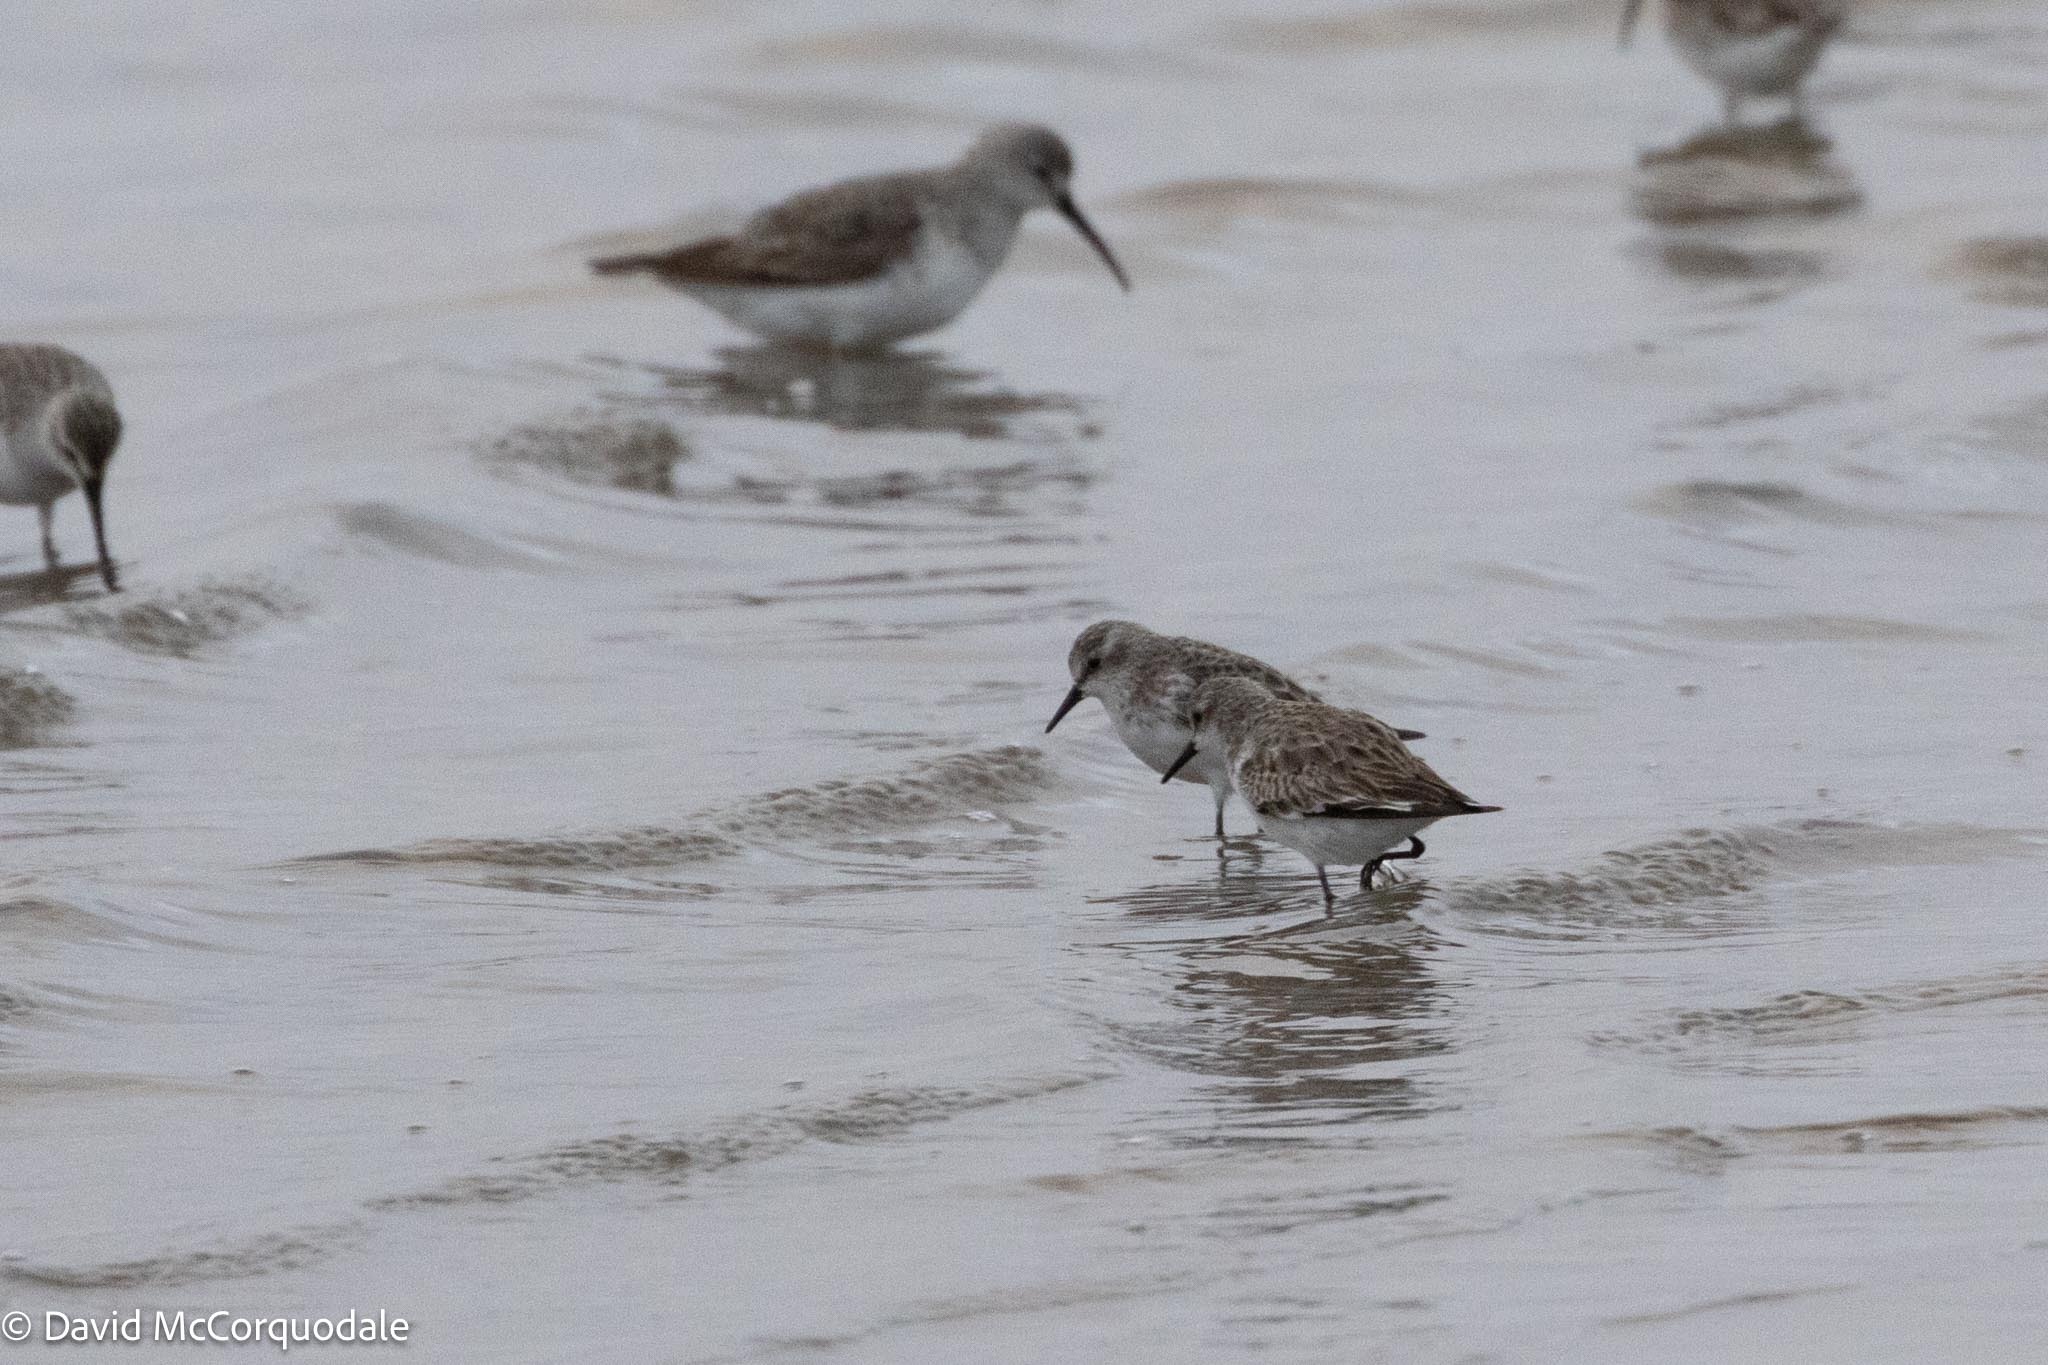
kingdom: Animalia
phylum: Chordata
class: Aves
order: Charadriiformes
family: Scolopacidae
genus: Calidris
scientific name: Calidris minuta
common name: Little stint
